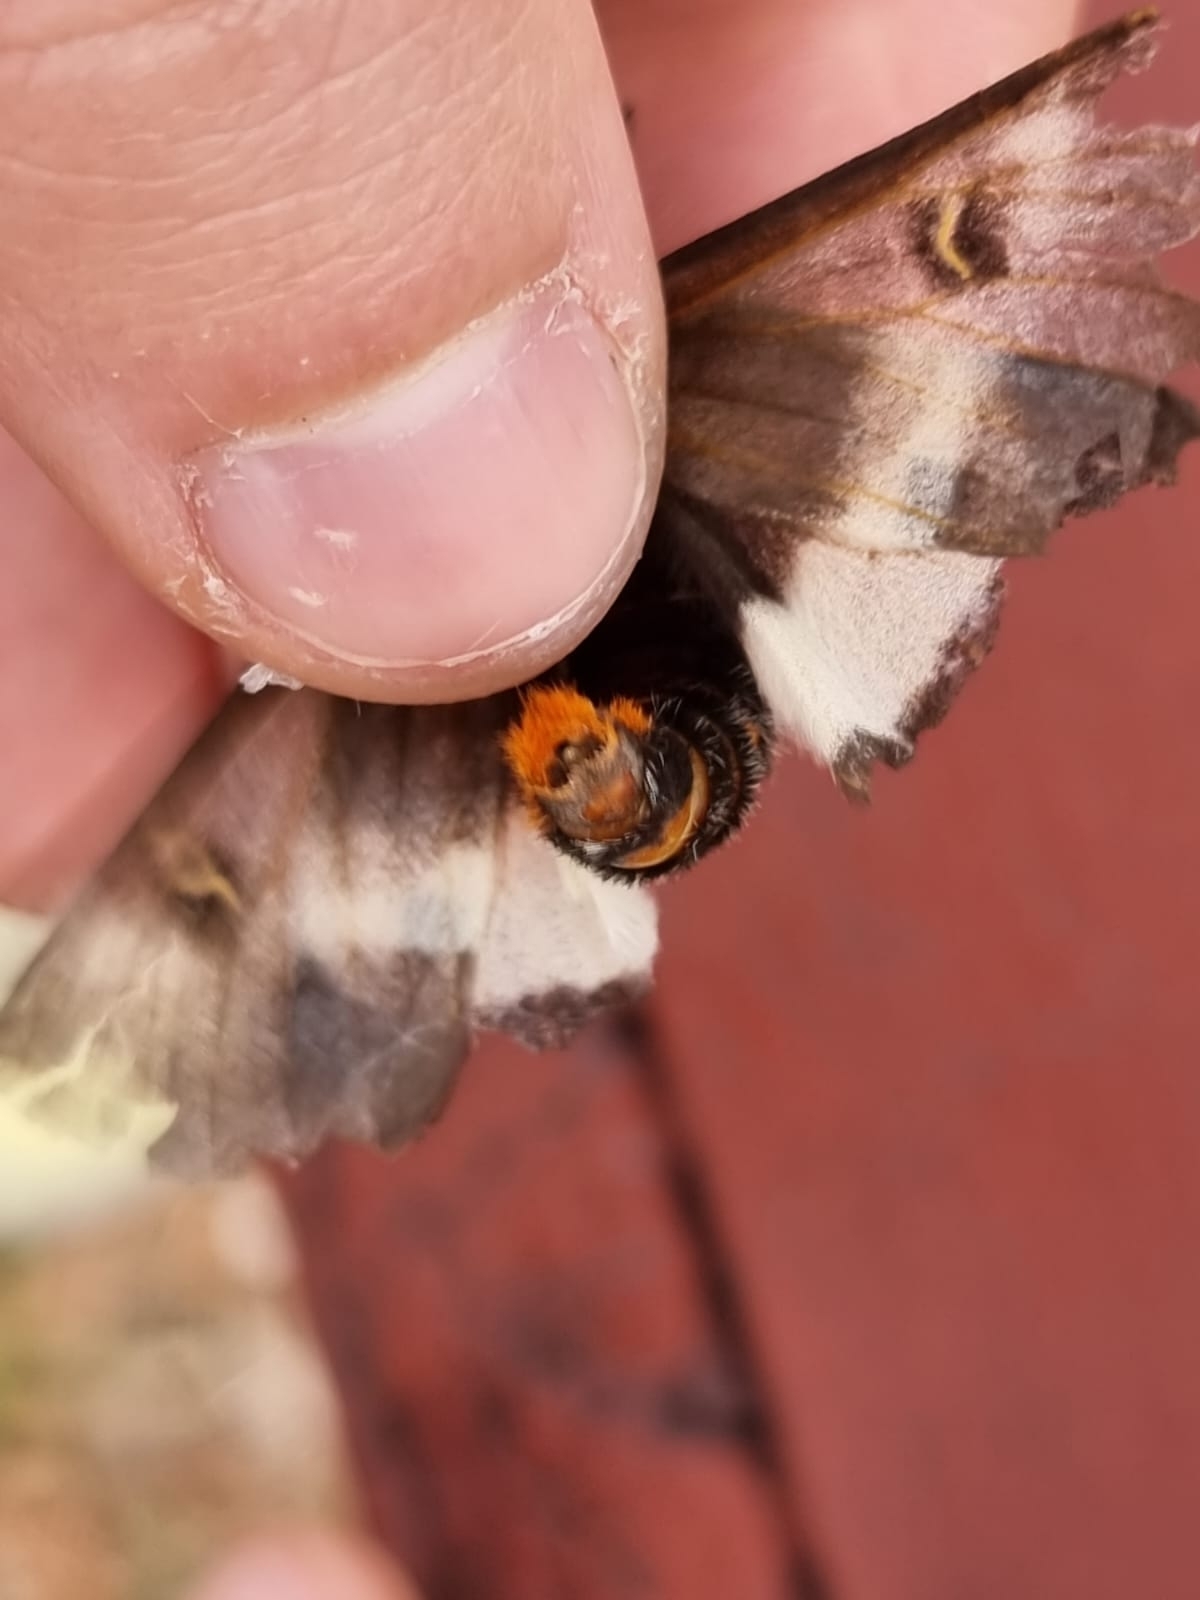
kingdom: Animalia
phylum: Arthropoda
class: Insecta
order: Lepidoptera
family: Saturniidae
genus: Hemileuca
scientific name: Hemileuca maia
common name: Eastern buckmoth
